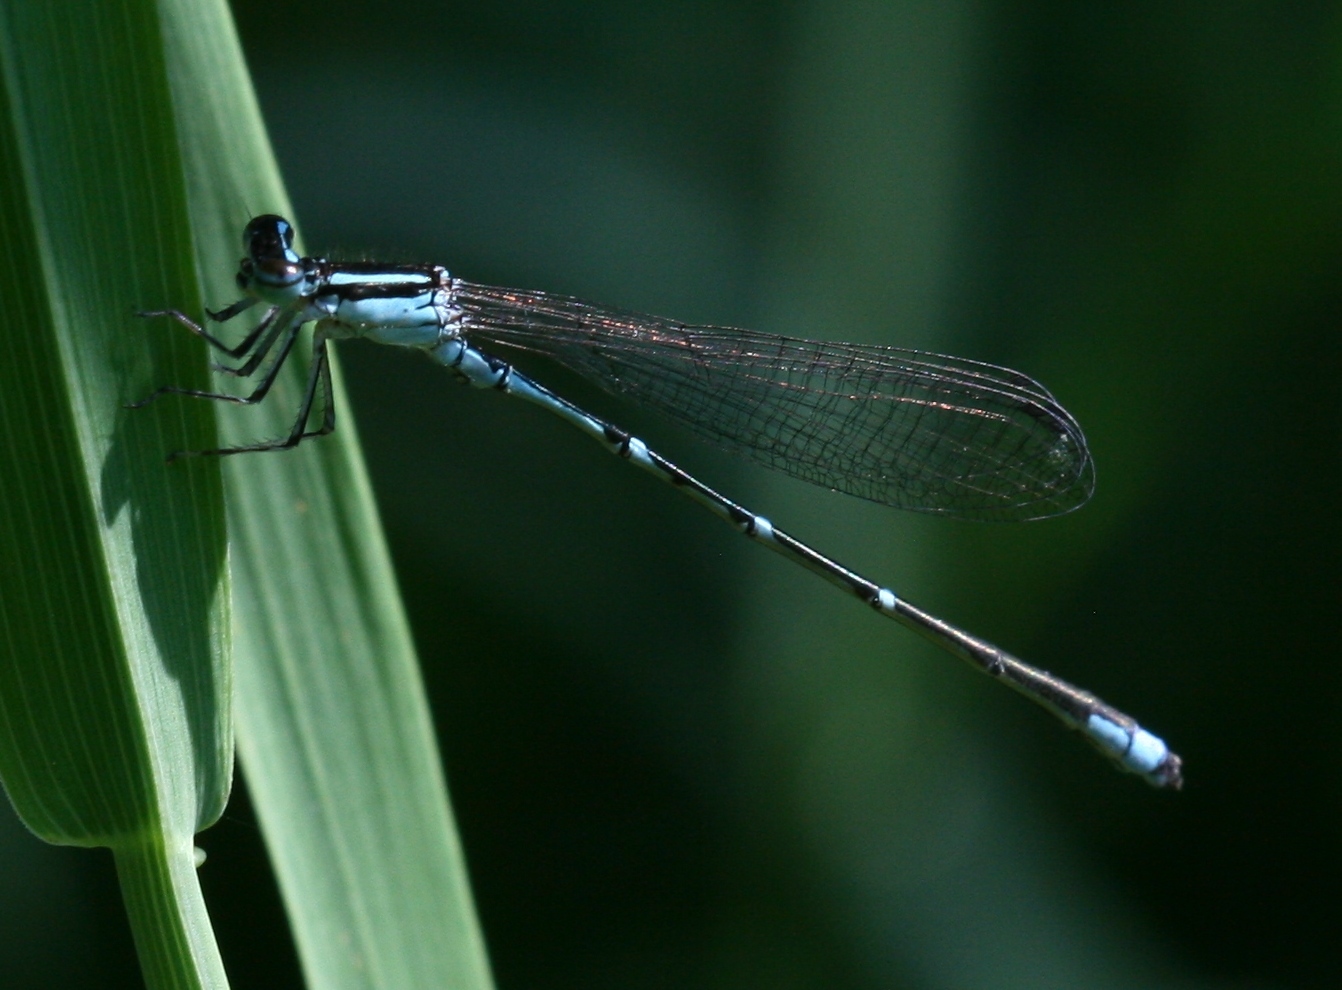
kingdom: Animalia
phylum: Arthropoda
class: Insecta
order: Odonata
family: Coenagrionidae
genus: Enallagma
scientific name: Enallagma exsulans
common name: Stream bluet
